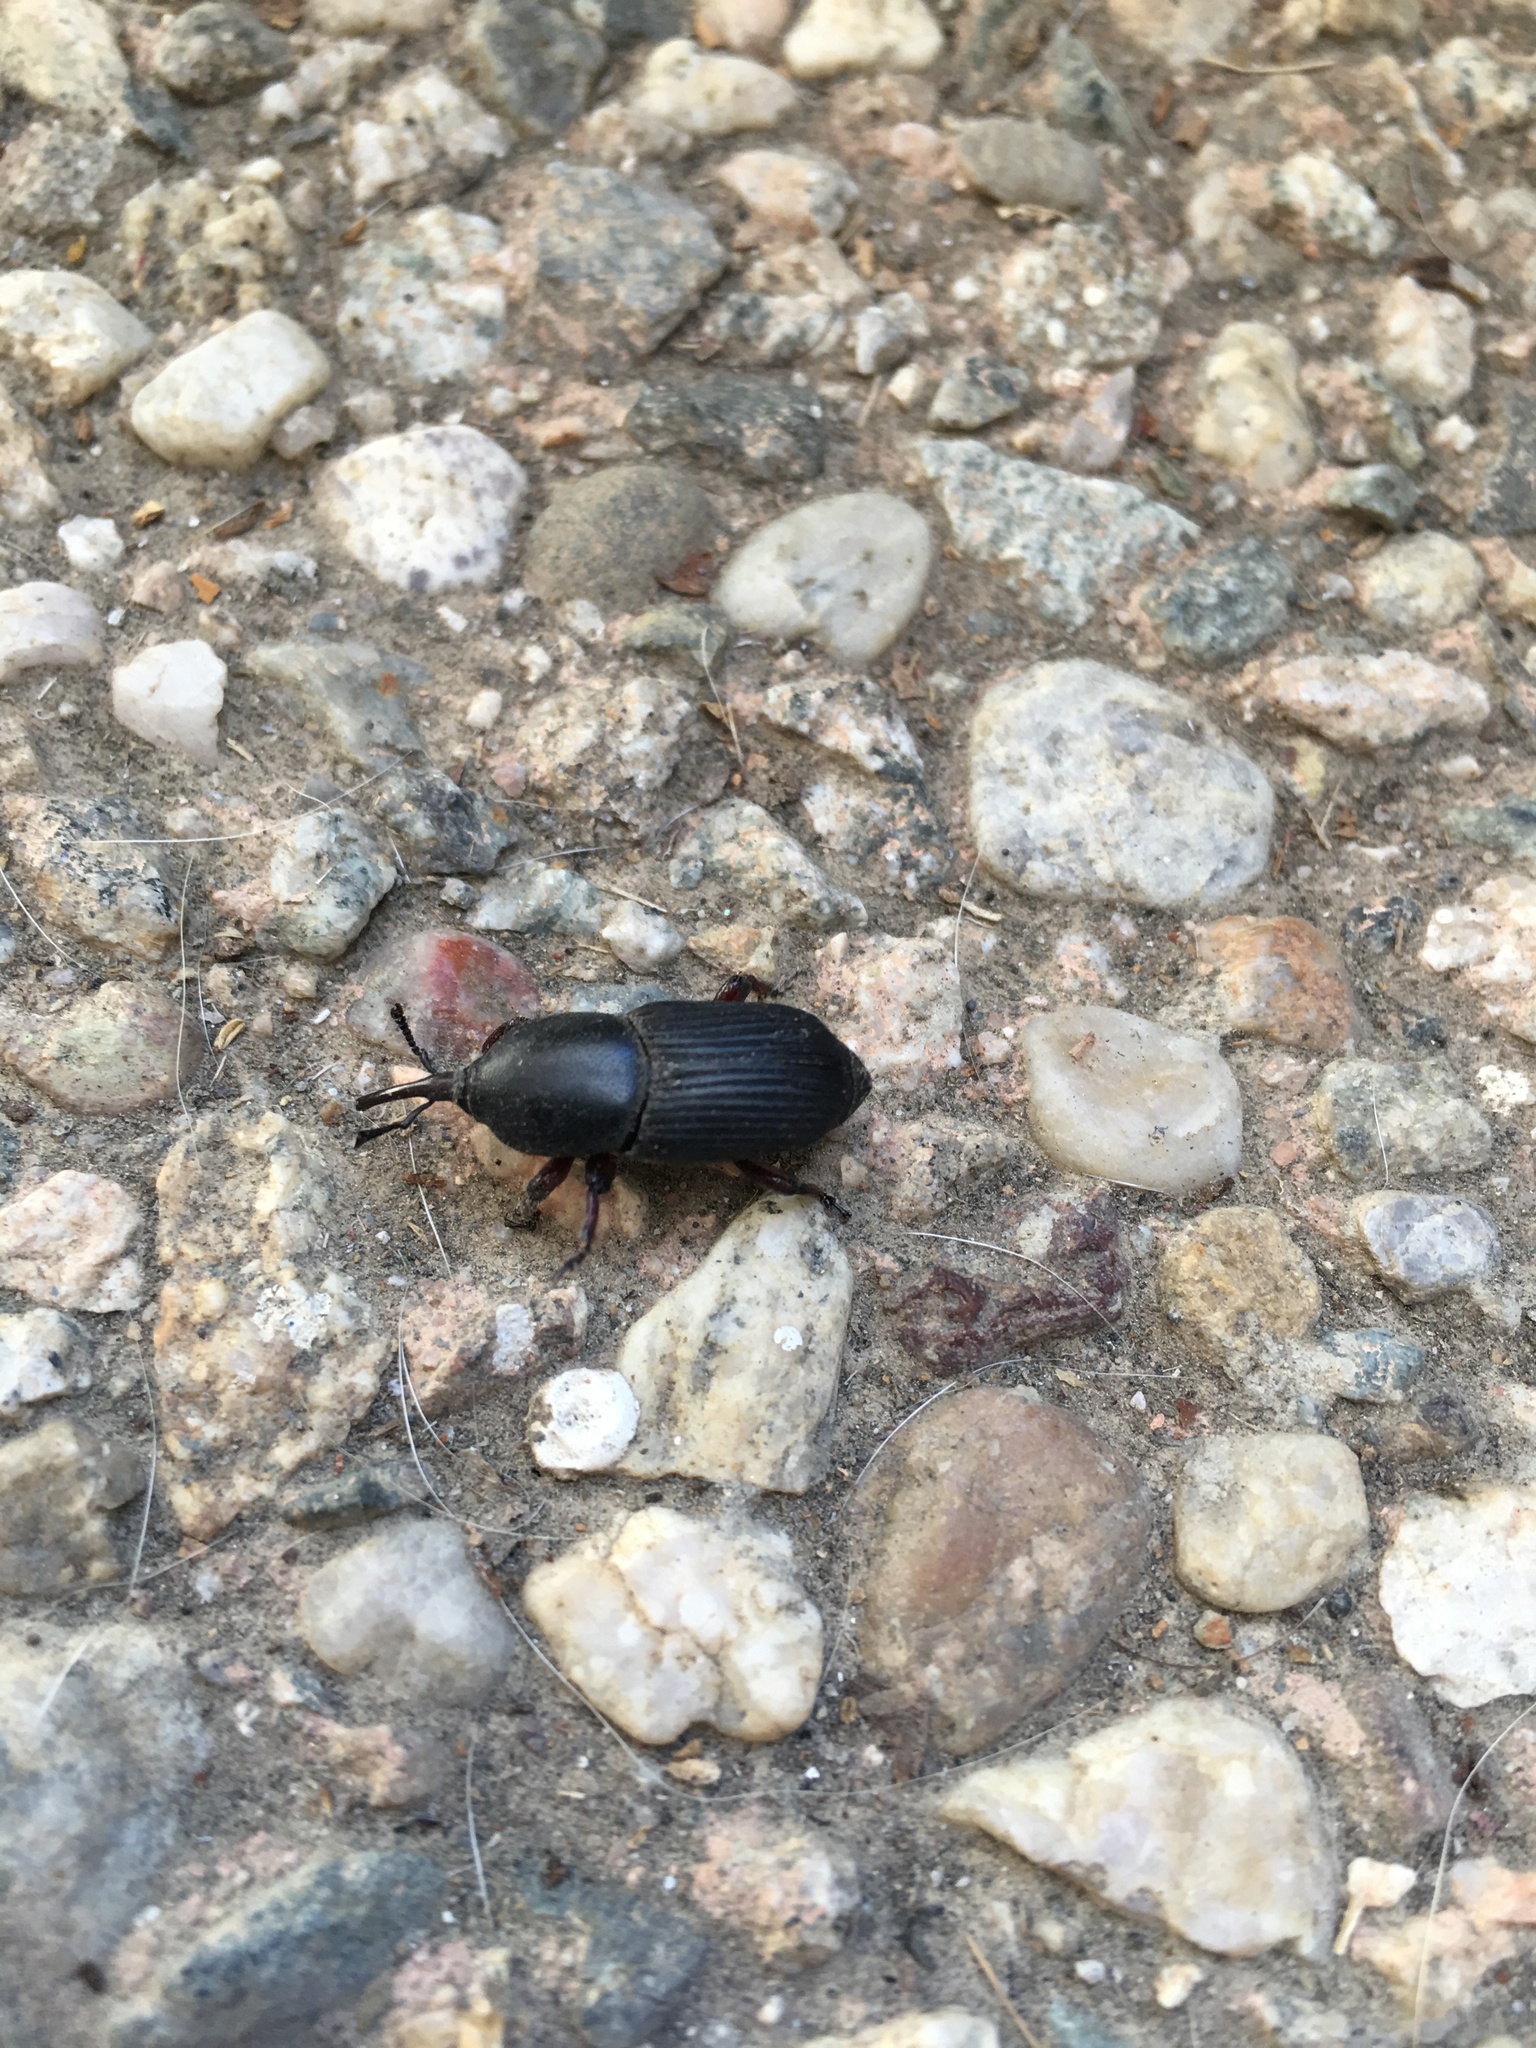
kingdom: Animalia
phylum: Arthropoda
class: Insecta
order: Coleoptera
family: Dryophthoridae
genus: Scyphophorus
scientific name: Scyphophorus acupunctatus
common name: Weevil
